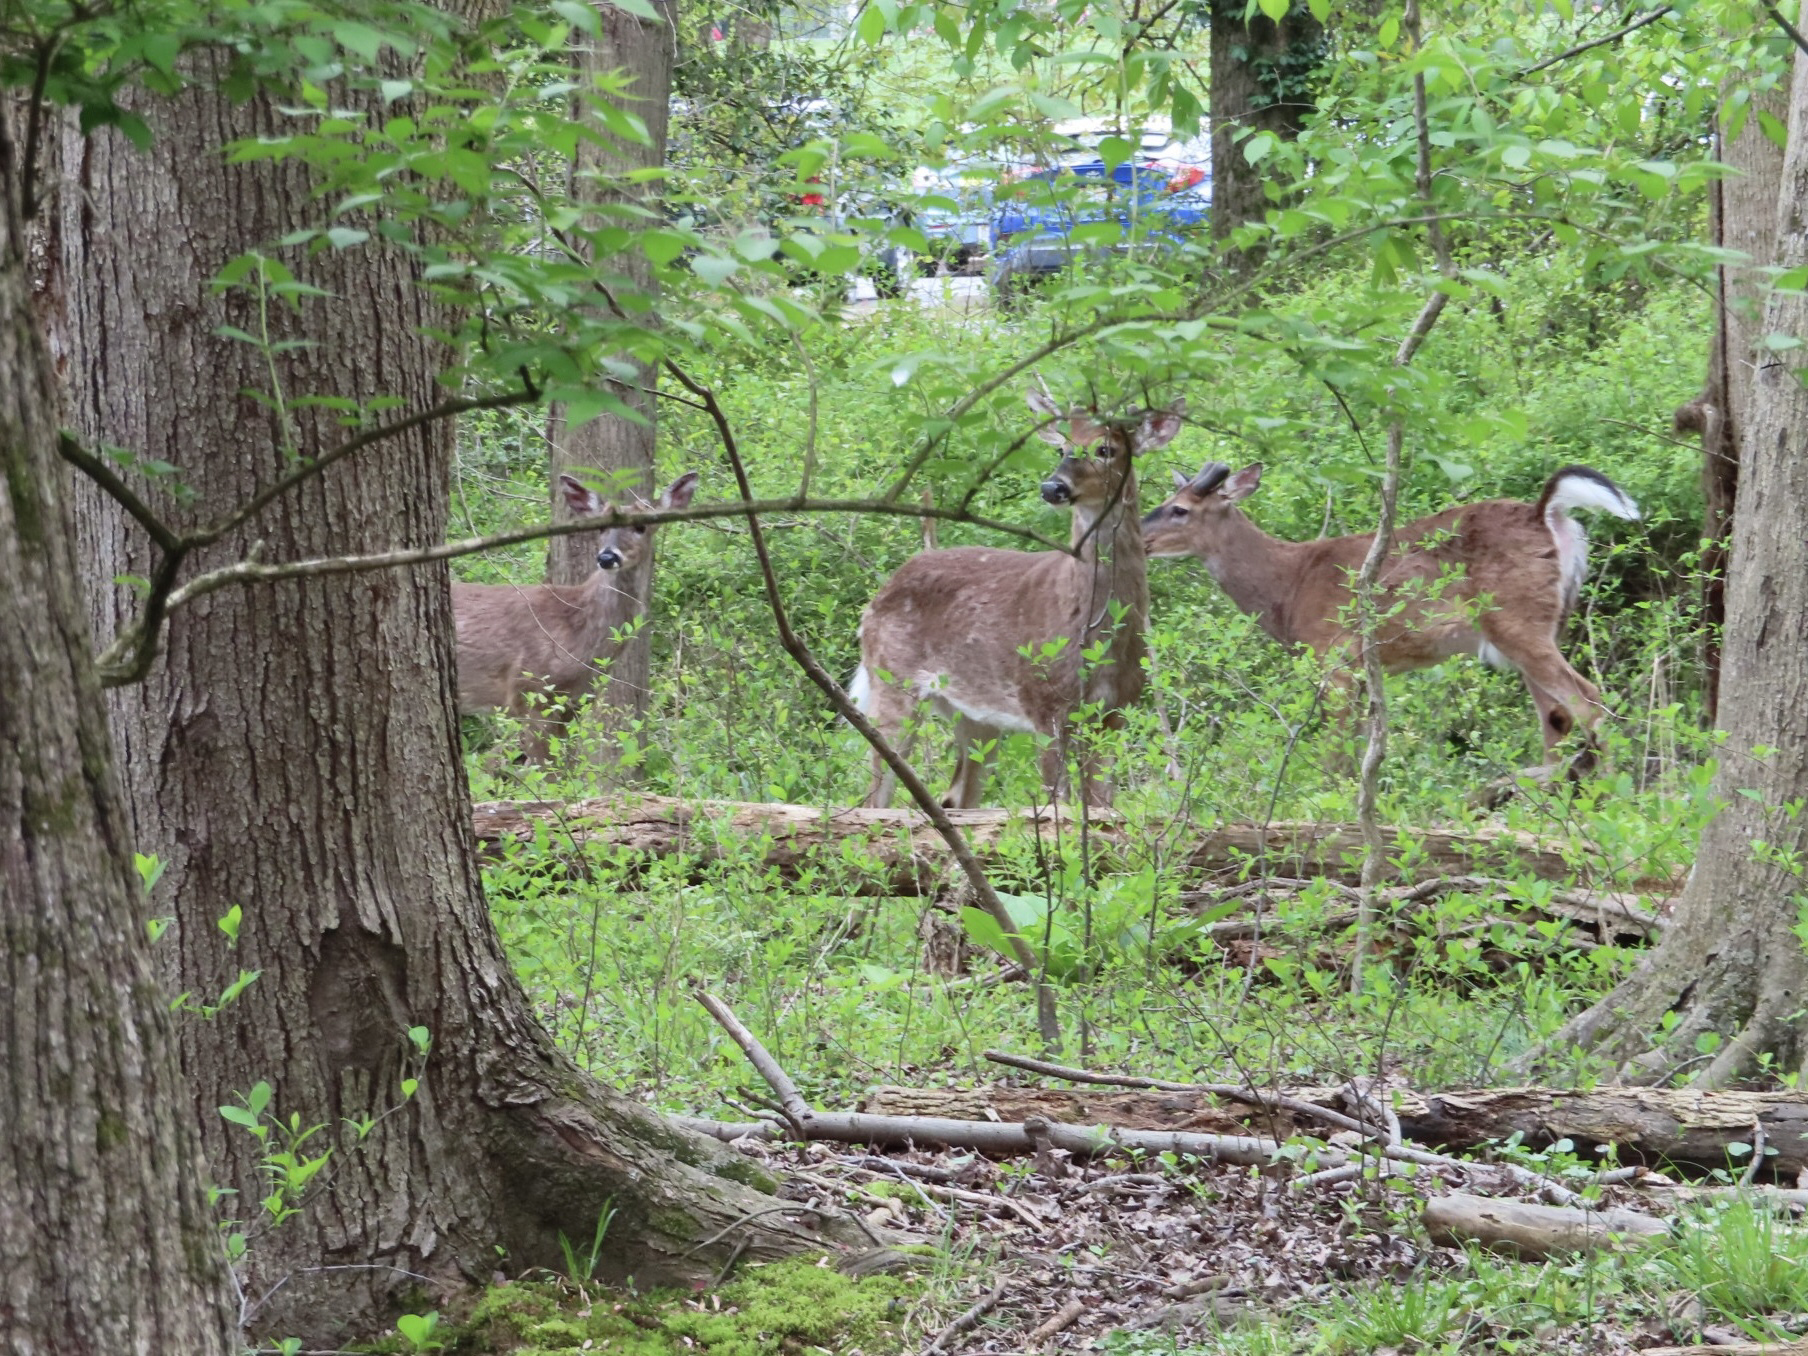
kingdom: Animalia
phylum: Chordata
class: Mammalia
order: Artiodactyla
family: Cervidae
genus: Odocoileus
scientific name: Odocoileus virginianus
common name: White-tailed deer
